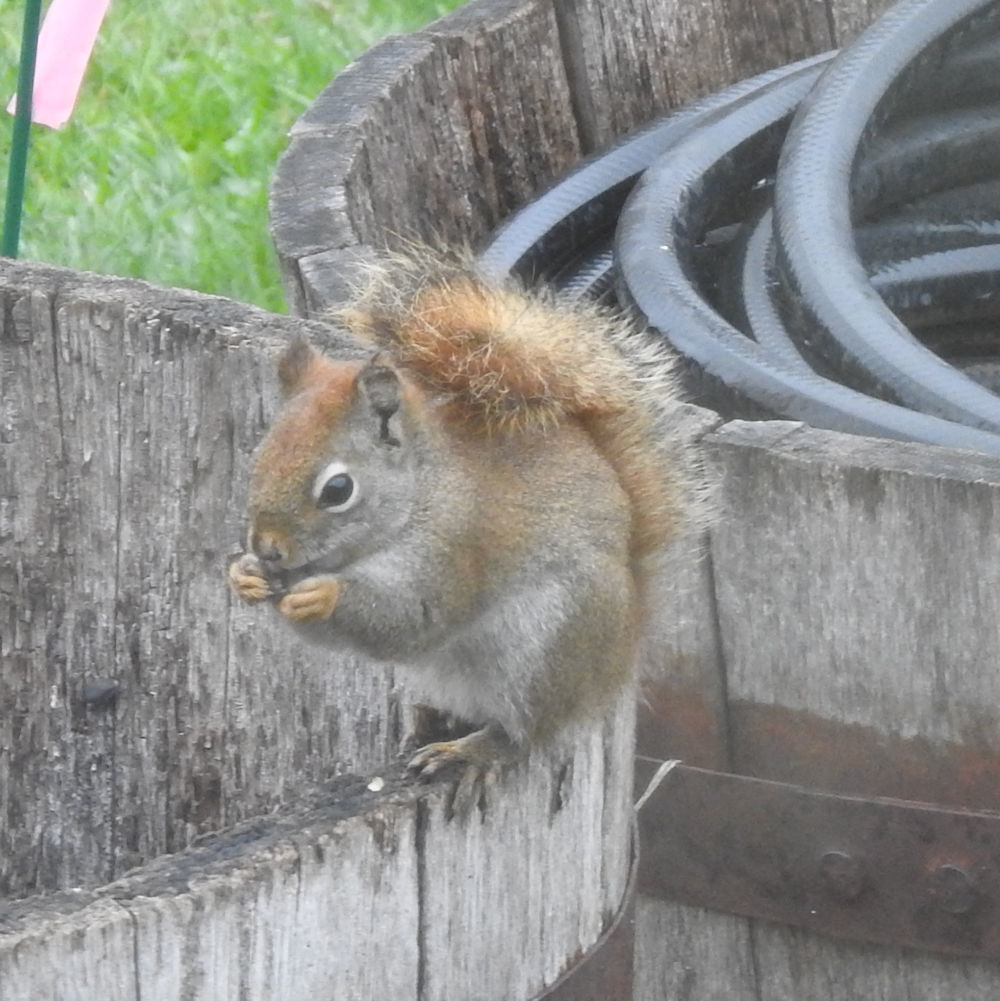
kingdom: Animalia
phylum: Chordata
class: Mammalia
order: Rodentia
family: Sciuridae
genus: Tamiasciurus
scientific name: Tamiasciurus hudsonicus
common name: Red squirrel
